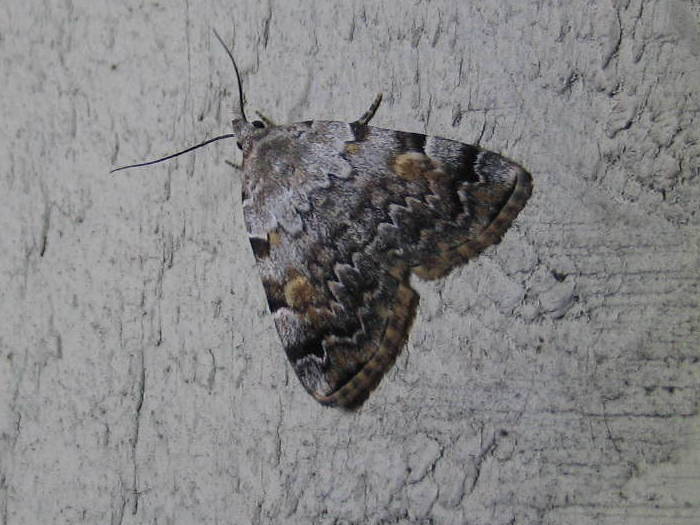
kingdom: Animalia
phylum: Arthropoda
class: Insecta
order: Lepidoptera
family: Erebidae
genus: Idia
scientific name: Idia americalis
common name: American idia moth
